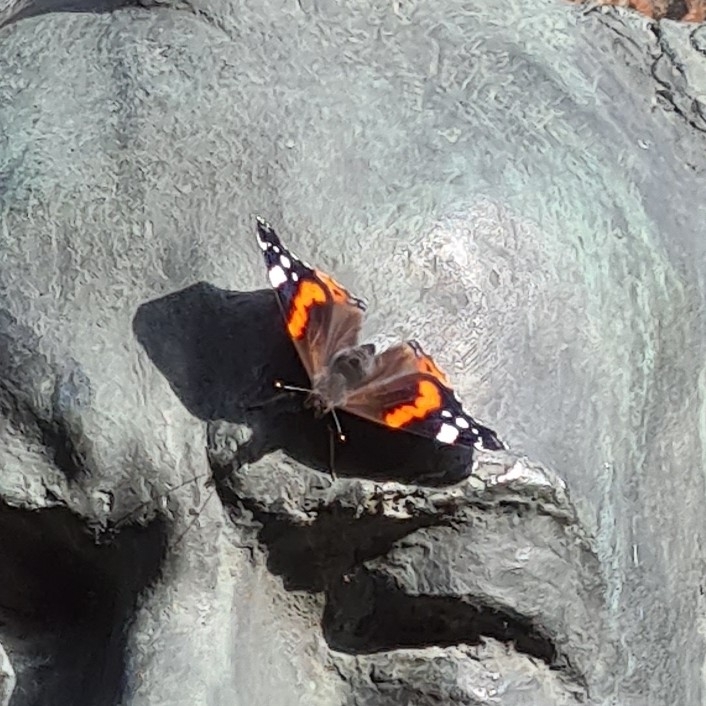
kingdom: Animalia
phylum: Arthropoda
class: Insecta
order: Lepidoptera
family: Nymphalidae
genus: Vanessa
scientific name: Vanessa atalanta
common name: Red admiral
